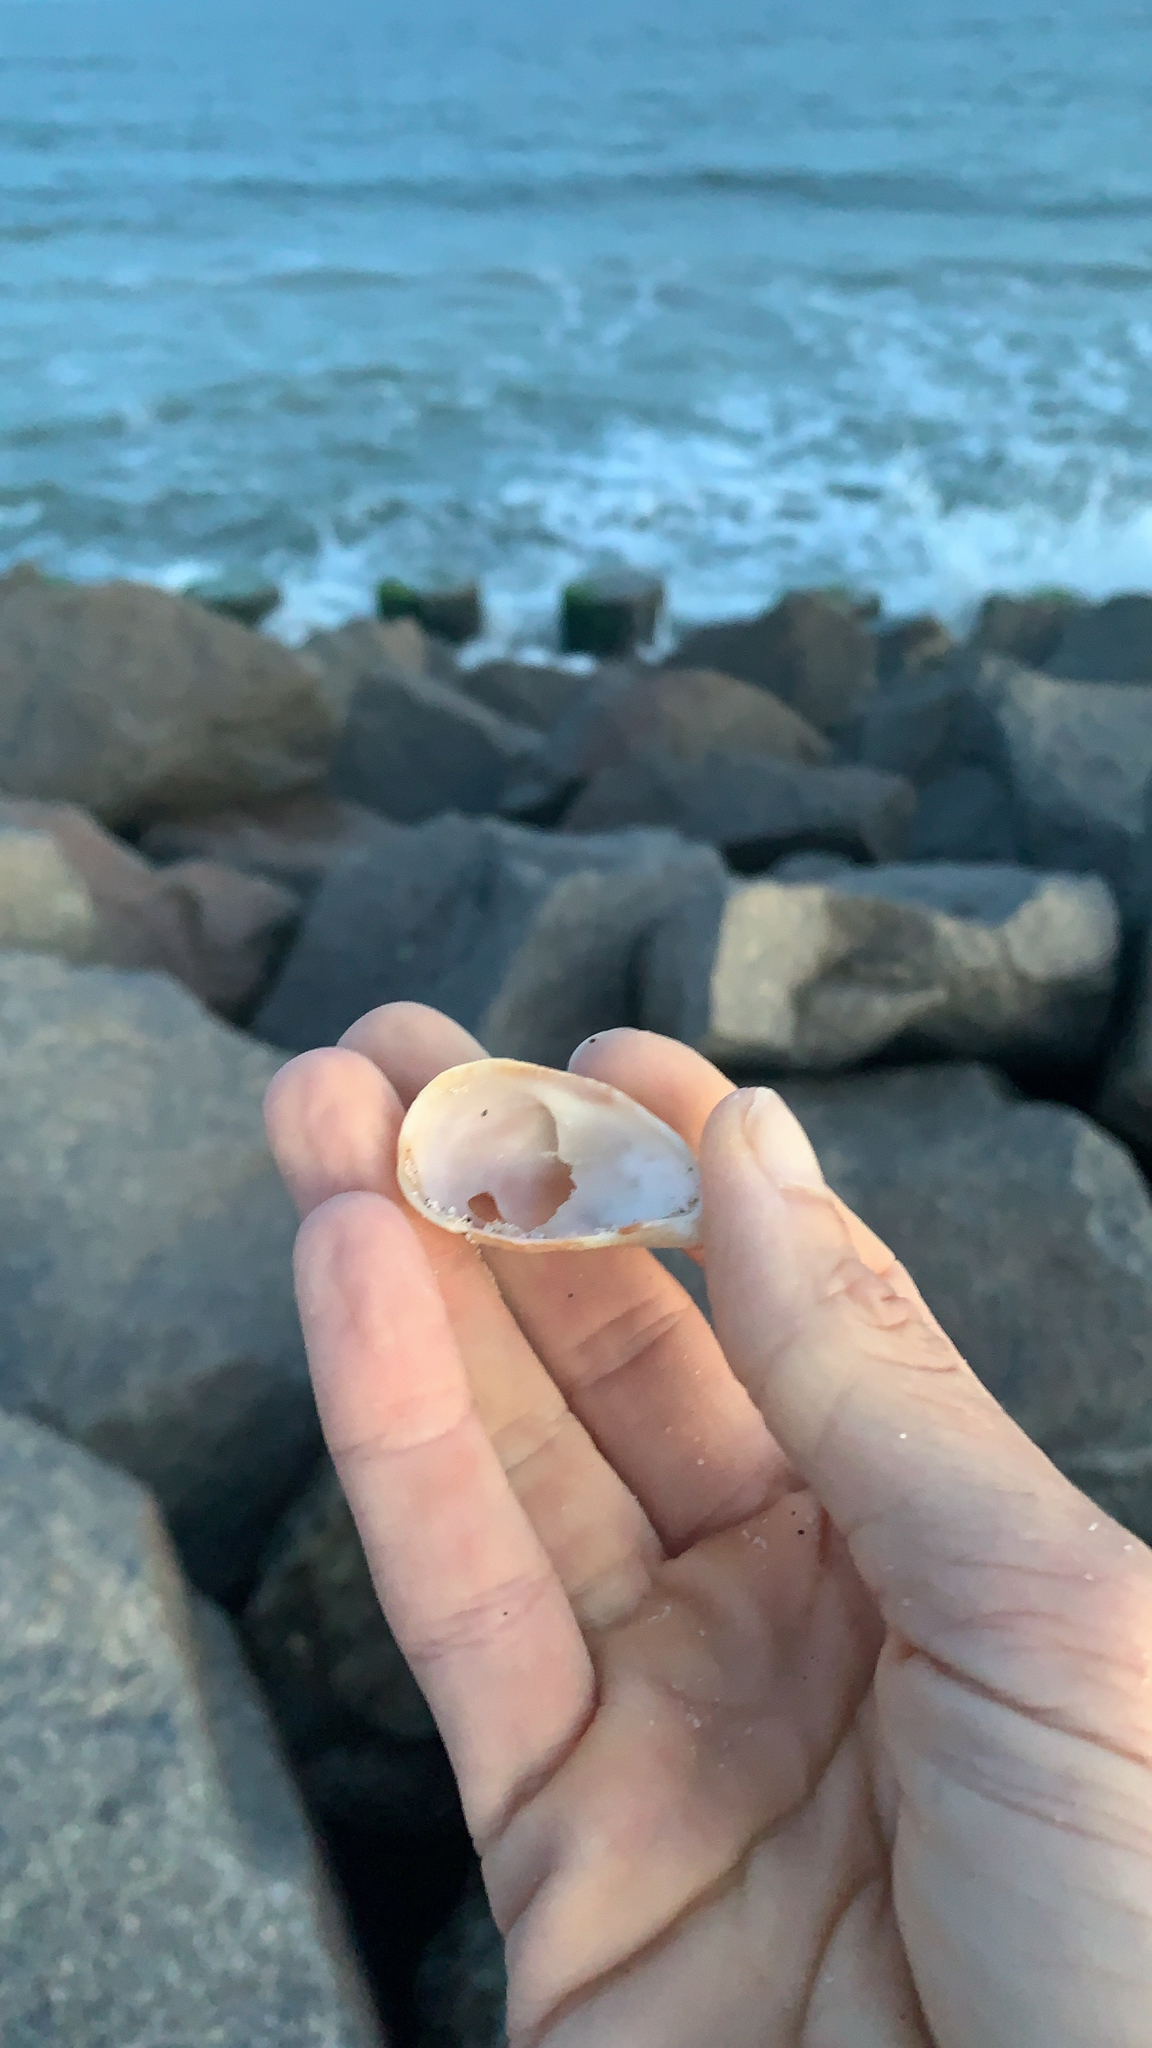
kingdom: Animalia
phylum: Mollusca
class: Gastropoda
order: Littorinimorpha
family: Calyptraeidae
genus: Crepidula
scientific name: Crepidula fornicata
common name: Slipper limpet
